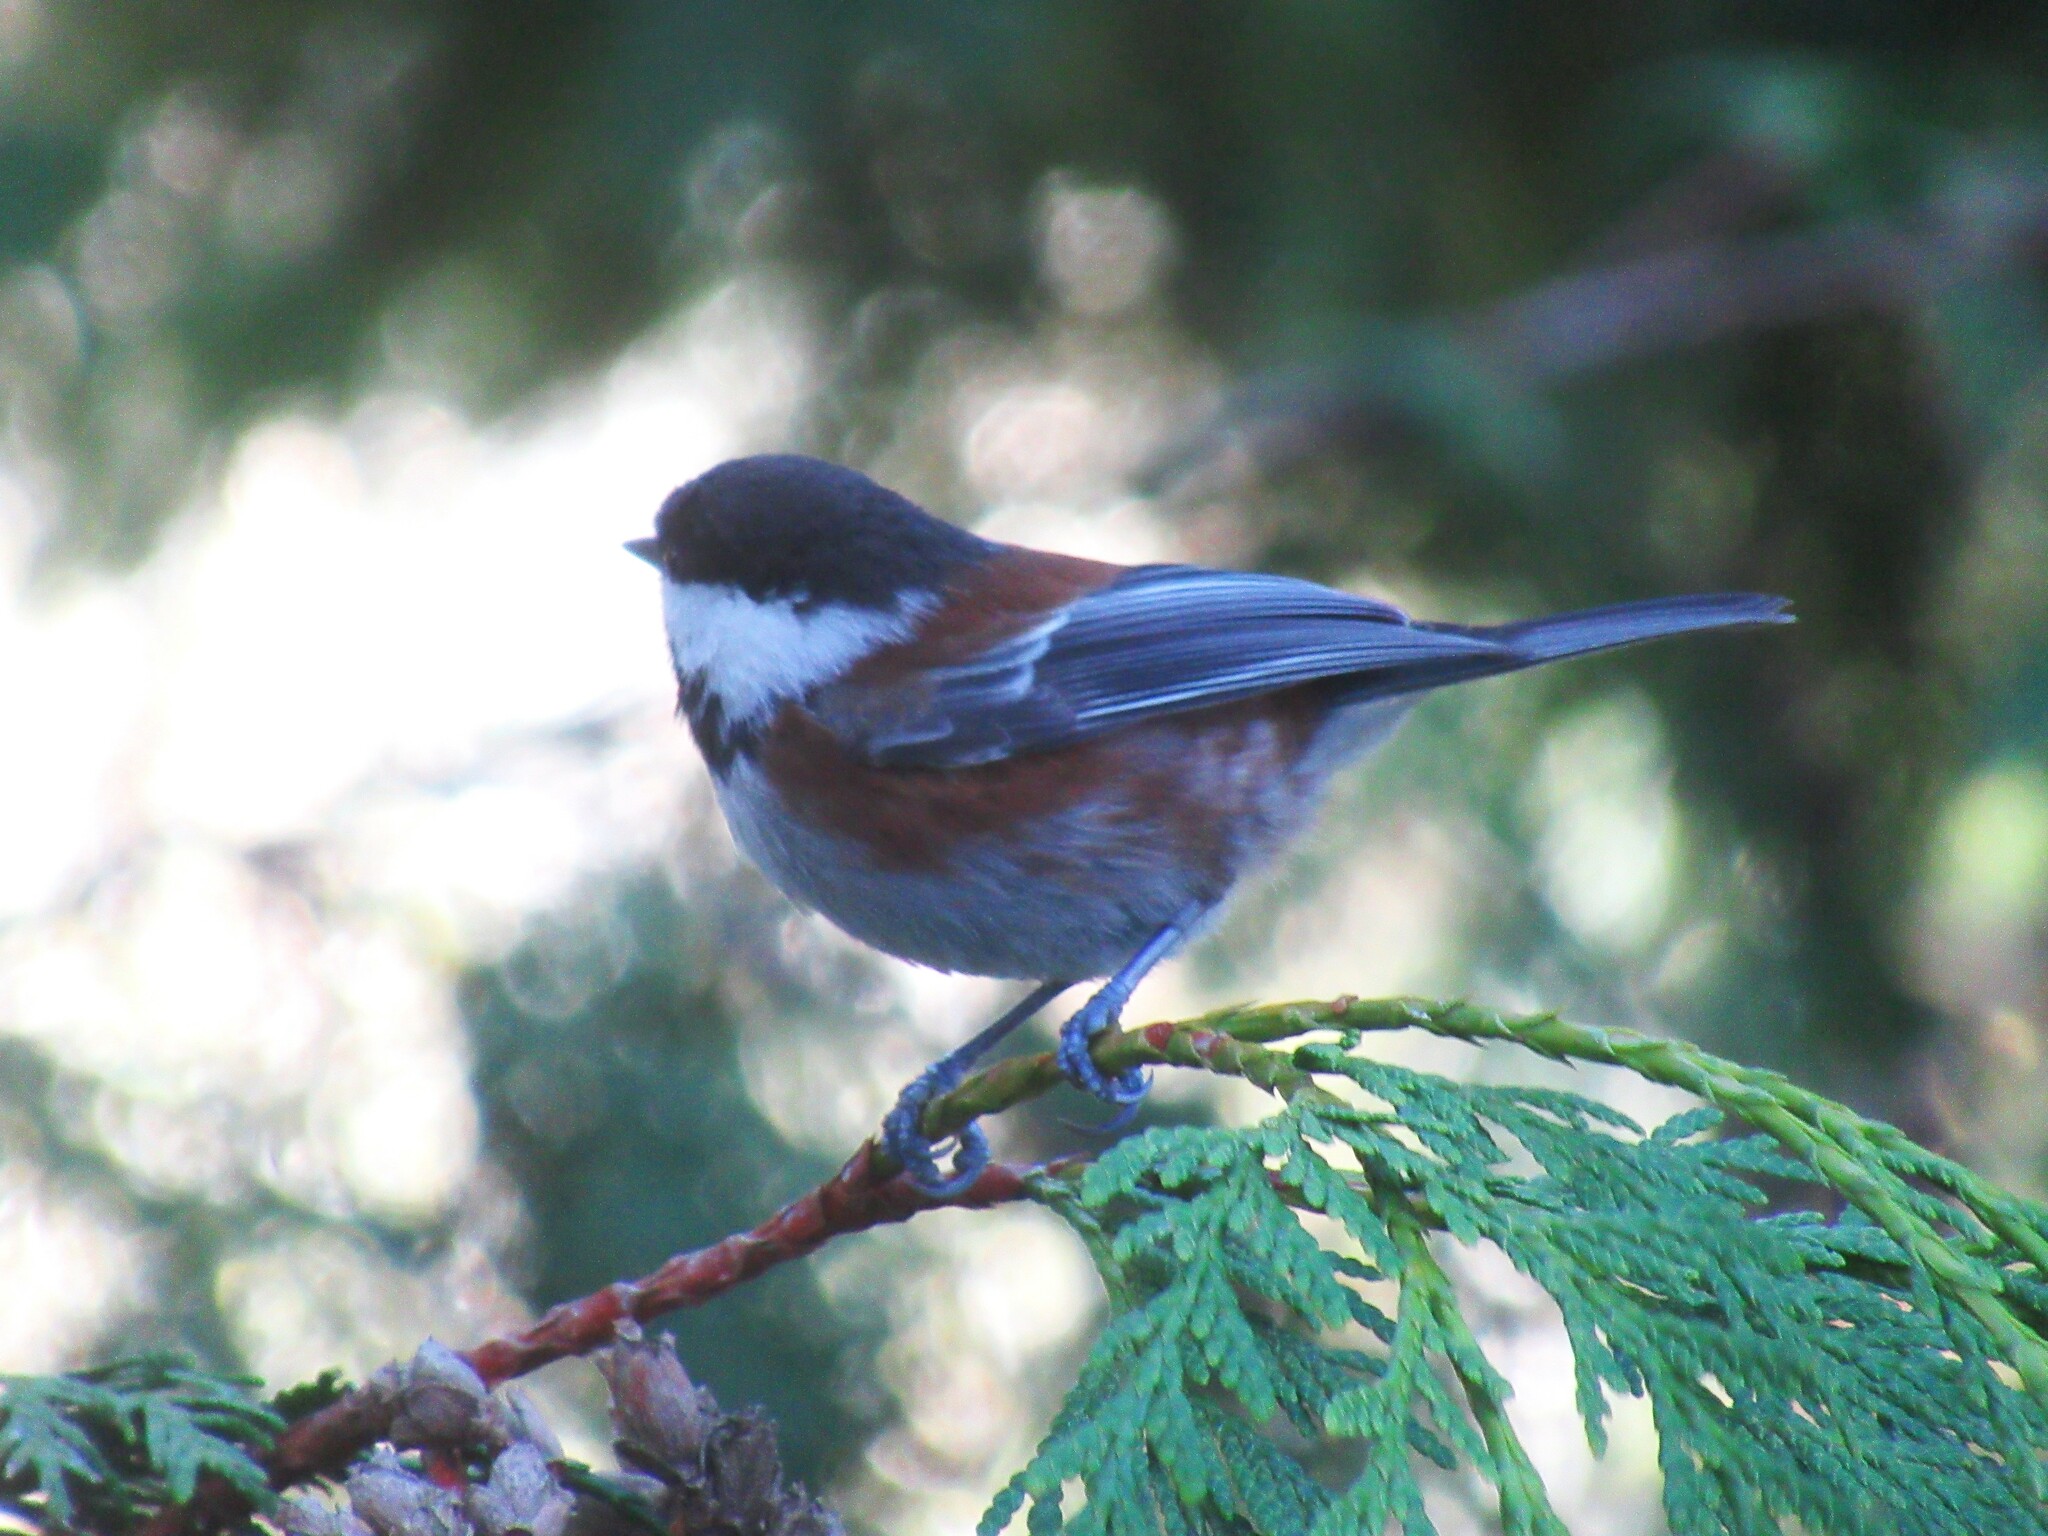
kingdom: Animalia
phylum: Chordata
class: Aves
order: Passeriformes
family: Paridae
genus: Poecile
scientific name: Poecile rufescens
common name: Chestnut-backed chickadee
